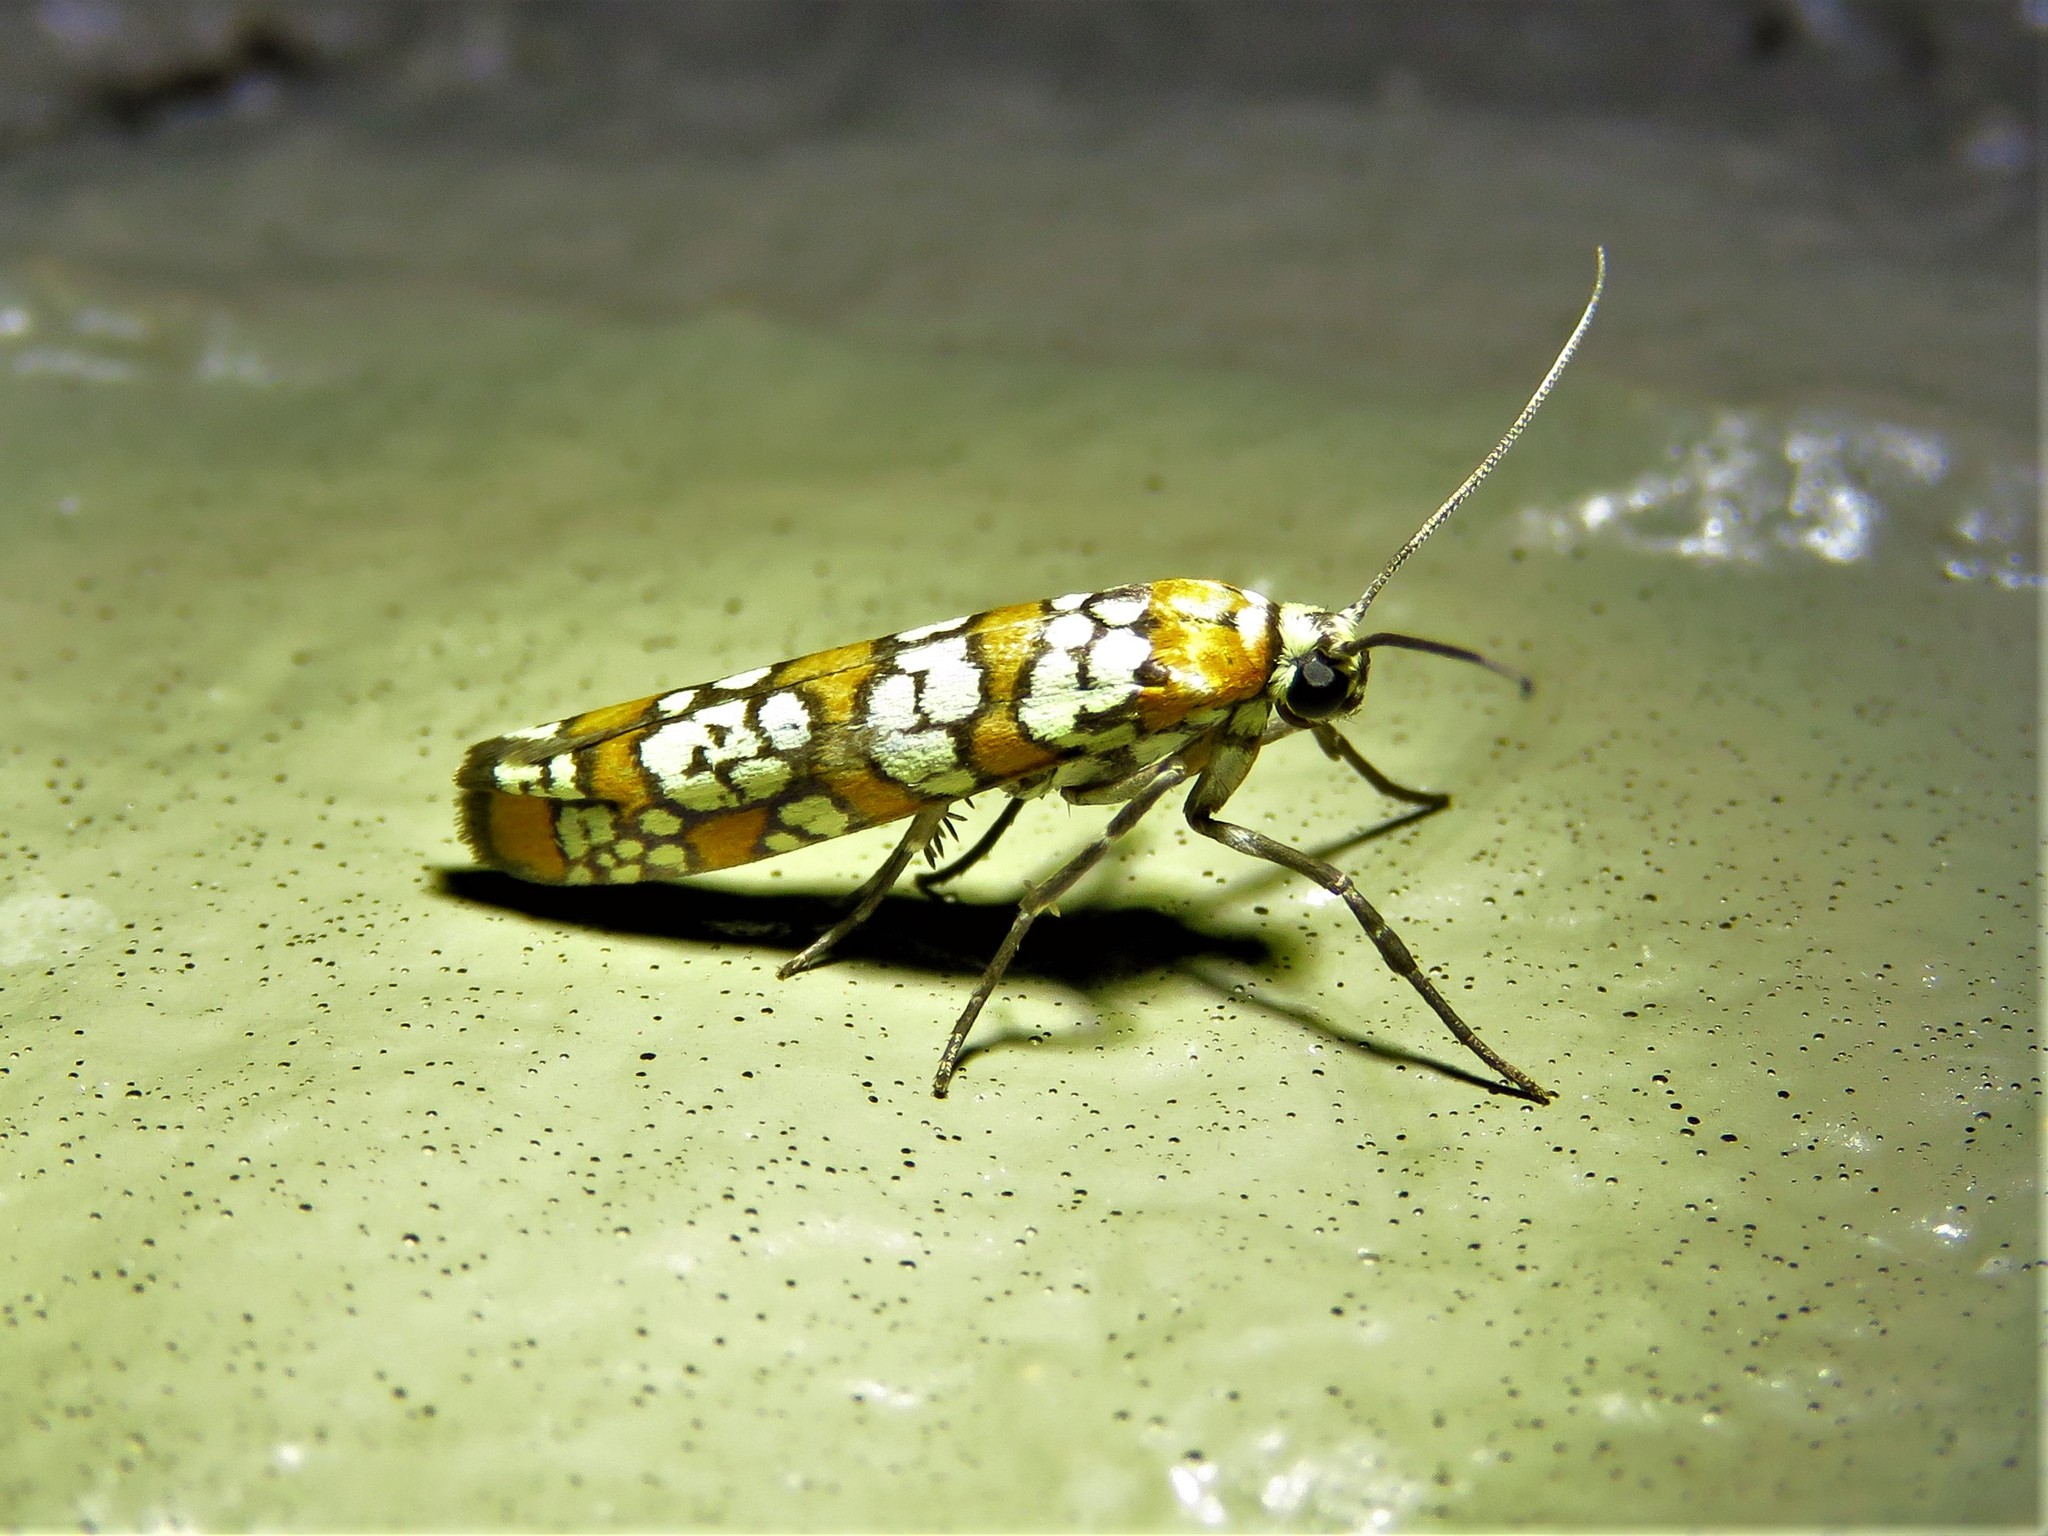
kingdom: Animalia
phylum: Arthropoda
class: Insecta
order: Lepidoptera
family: Attevidae
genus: Atteva
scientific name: Atteva punctella
